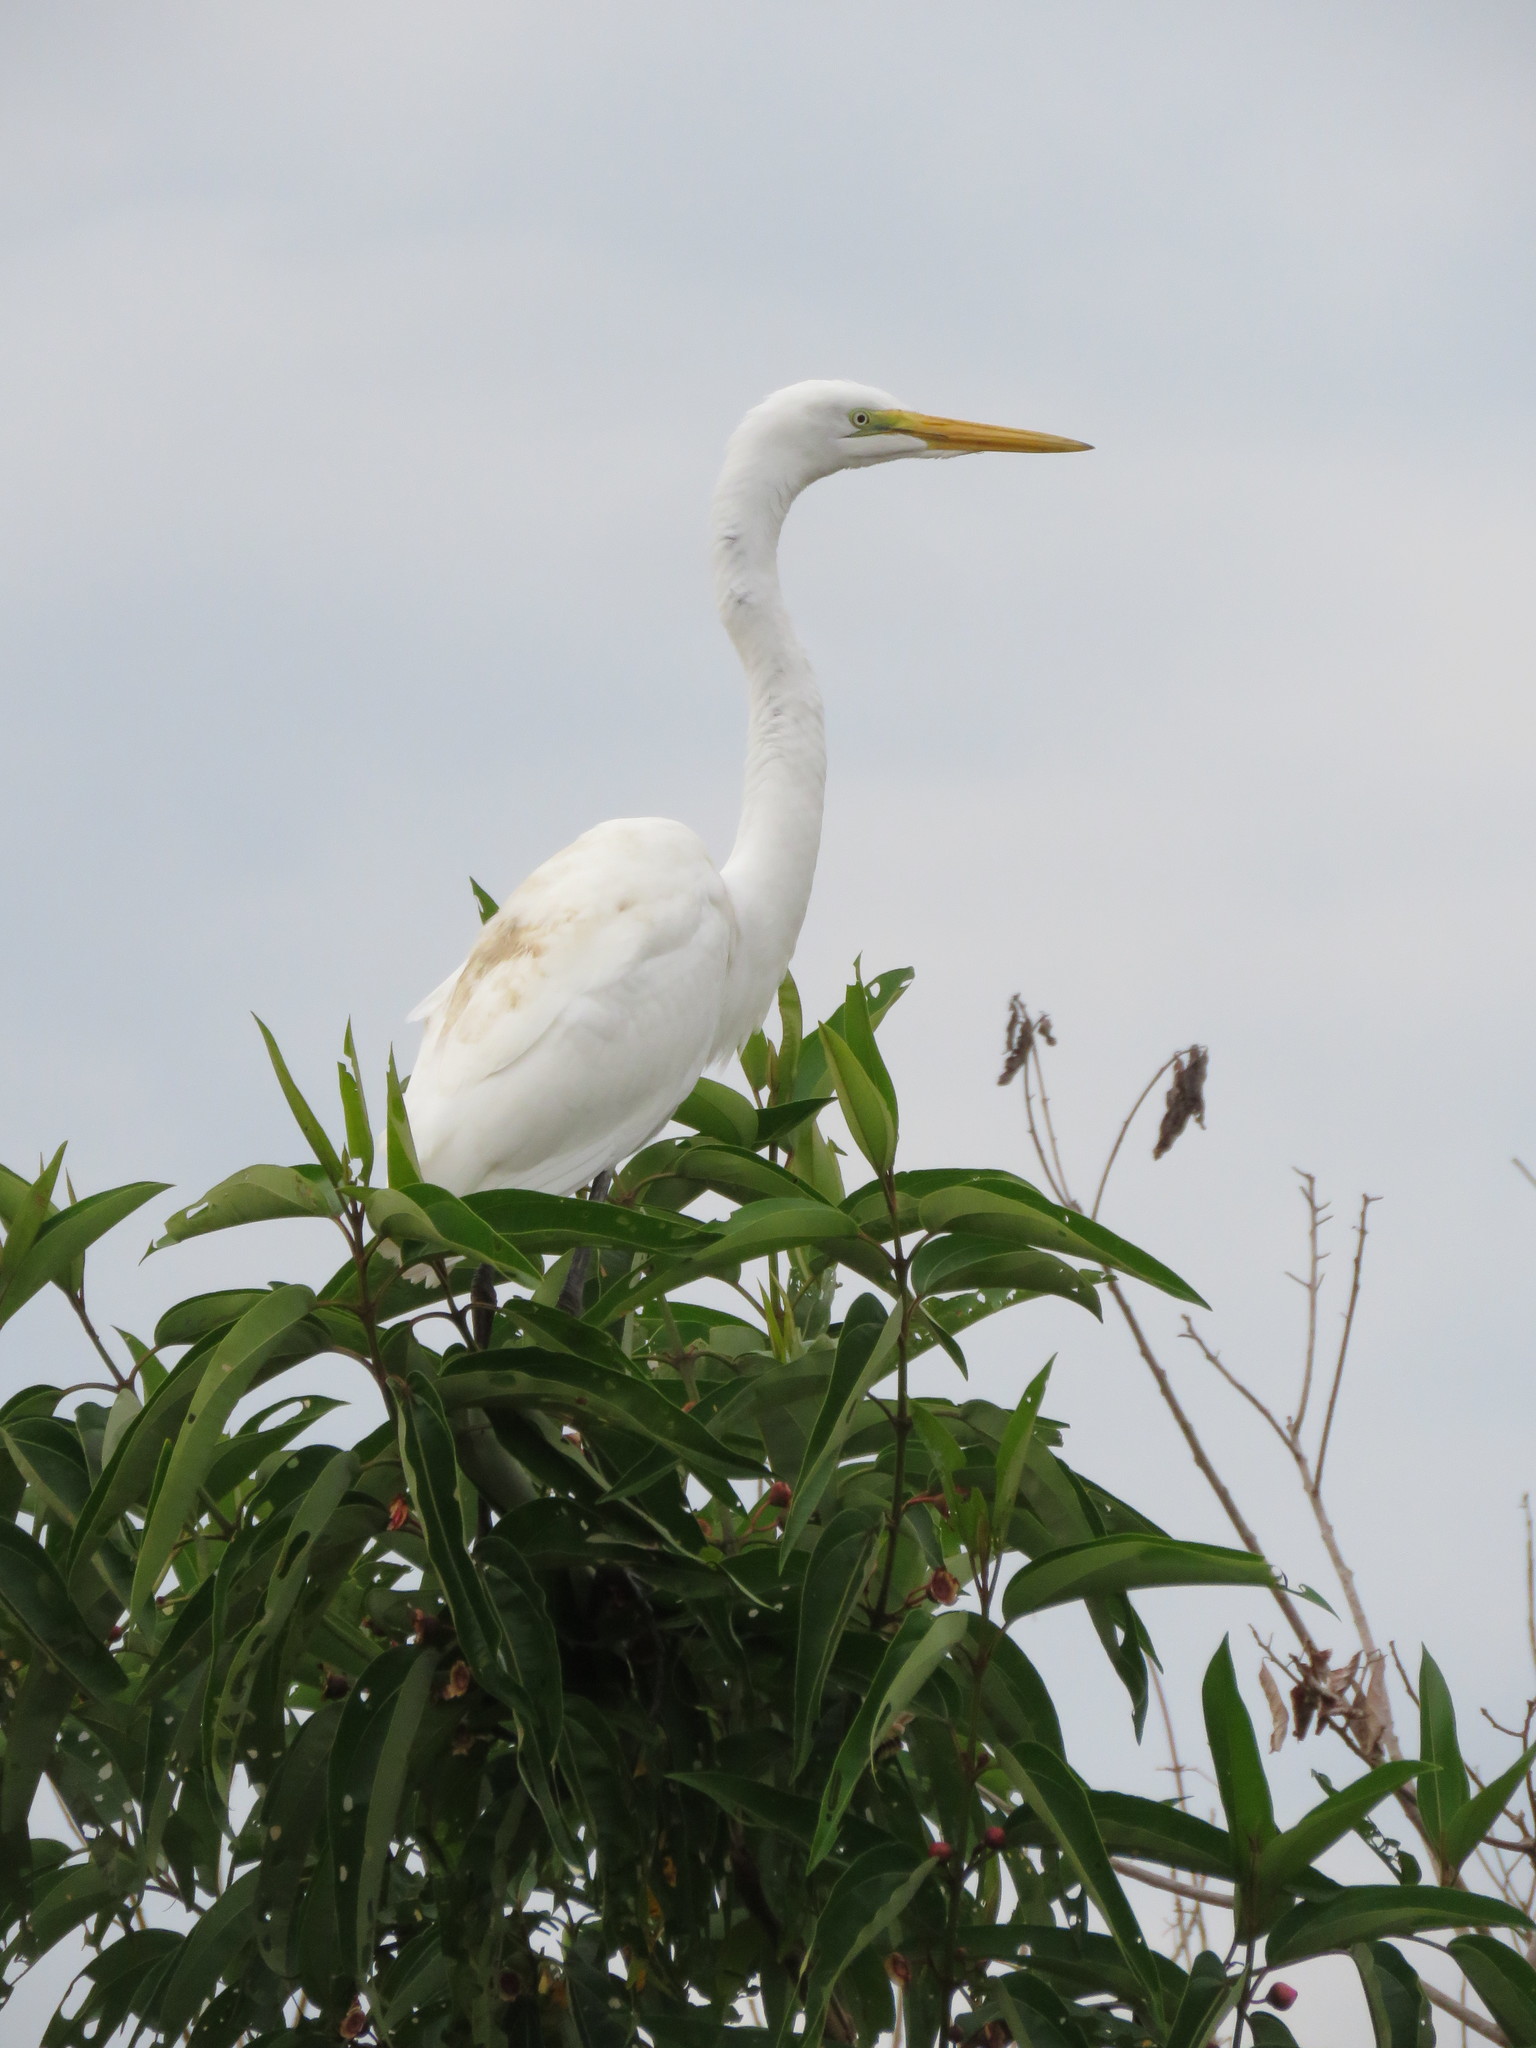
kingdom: Animalia
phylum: Chordata
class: Aves
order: Pelecaniformes
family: Ardeidae
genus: Ardea
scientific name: Ardea alba
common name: Great egret
